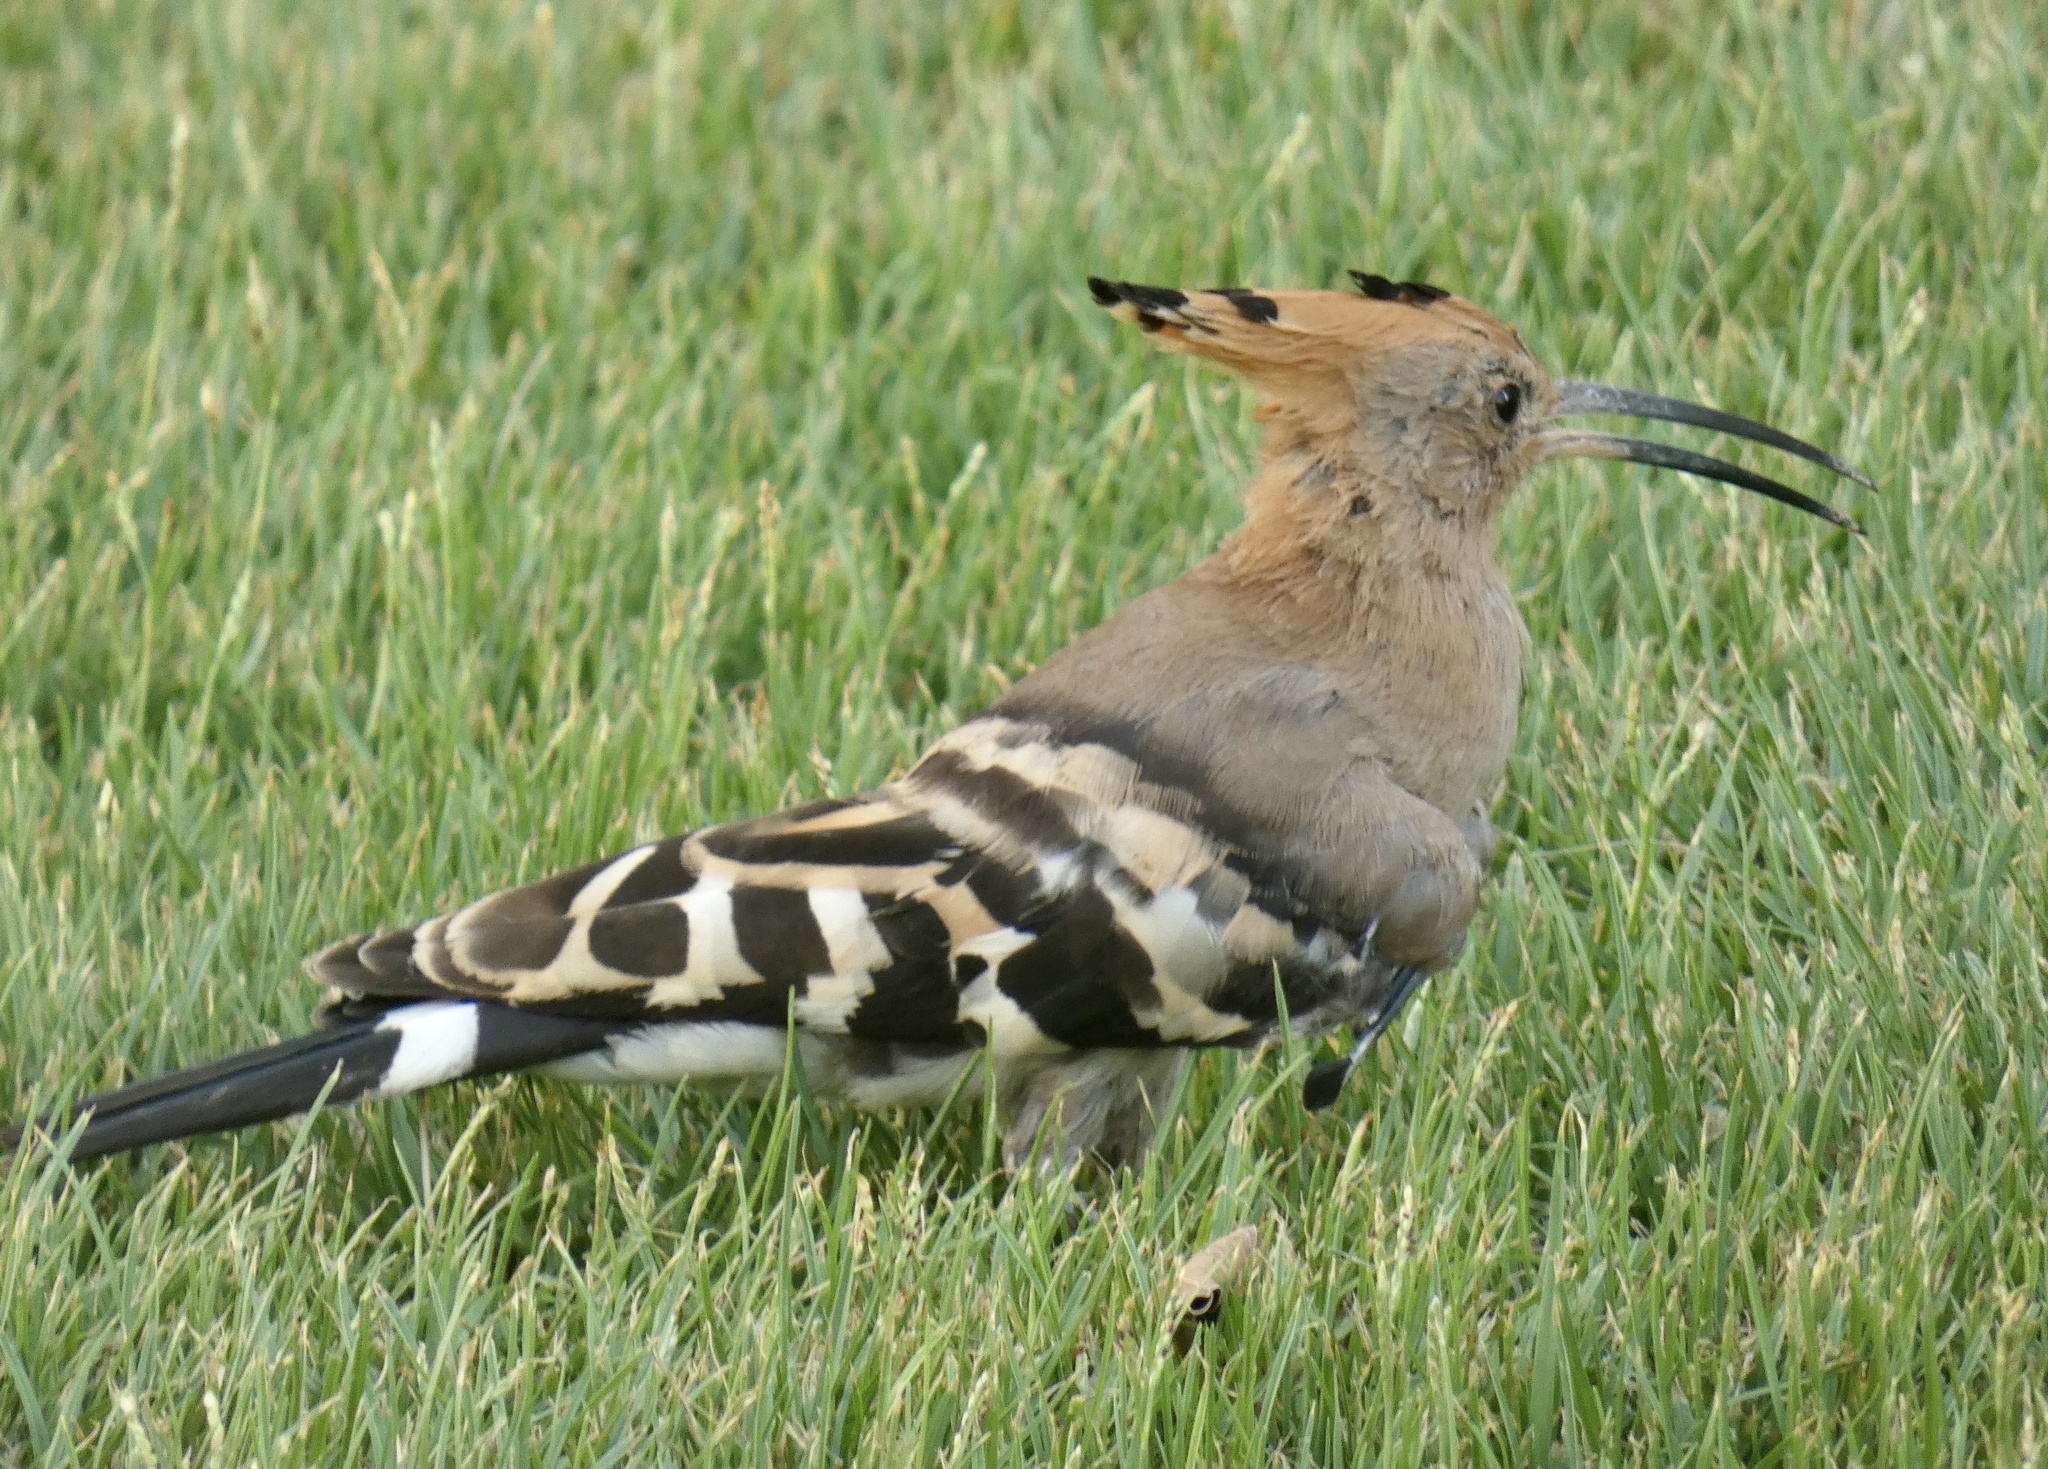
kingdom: Animalia
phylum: Chordata
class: Aves
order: Bucerotiformes
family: Upupidae
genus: Upupa
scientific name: Upupa epops
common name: Eurasian hoopoe
